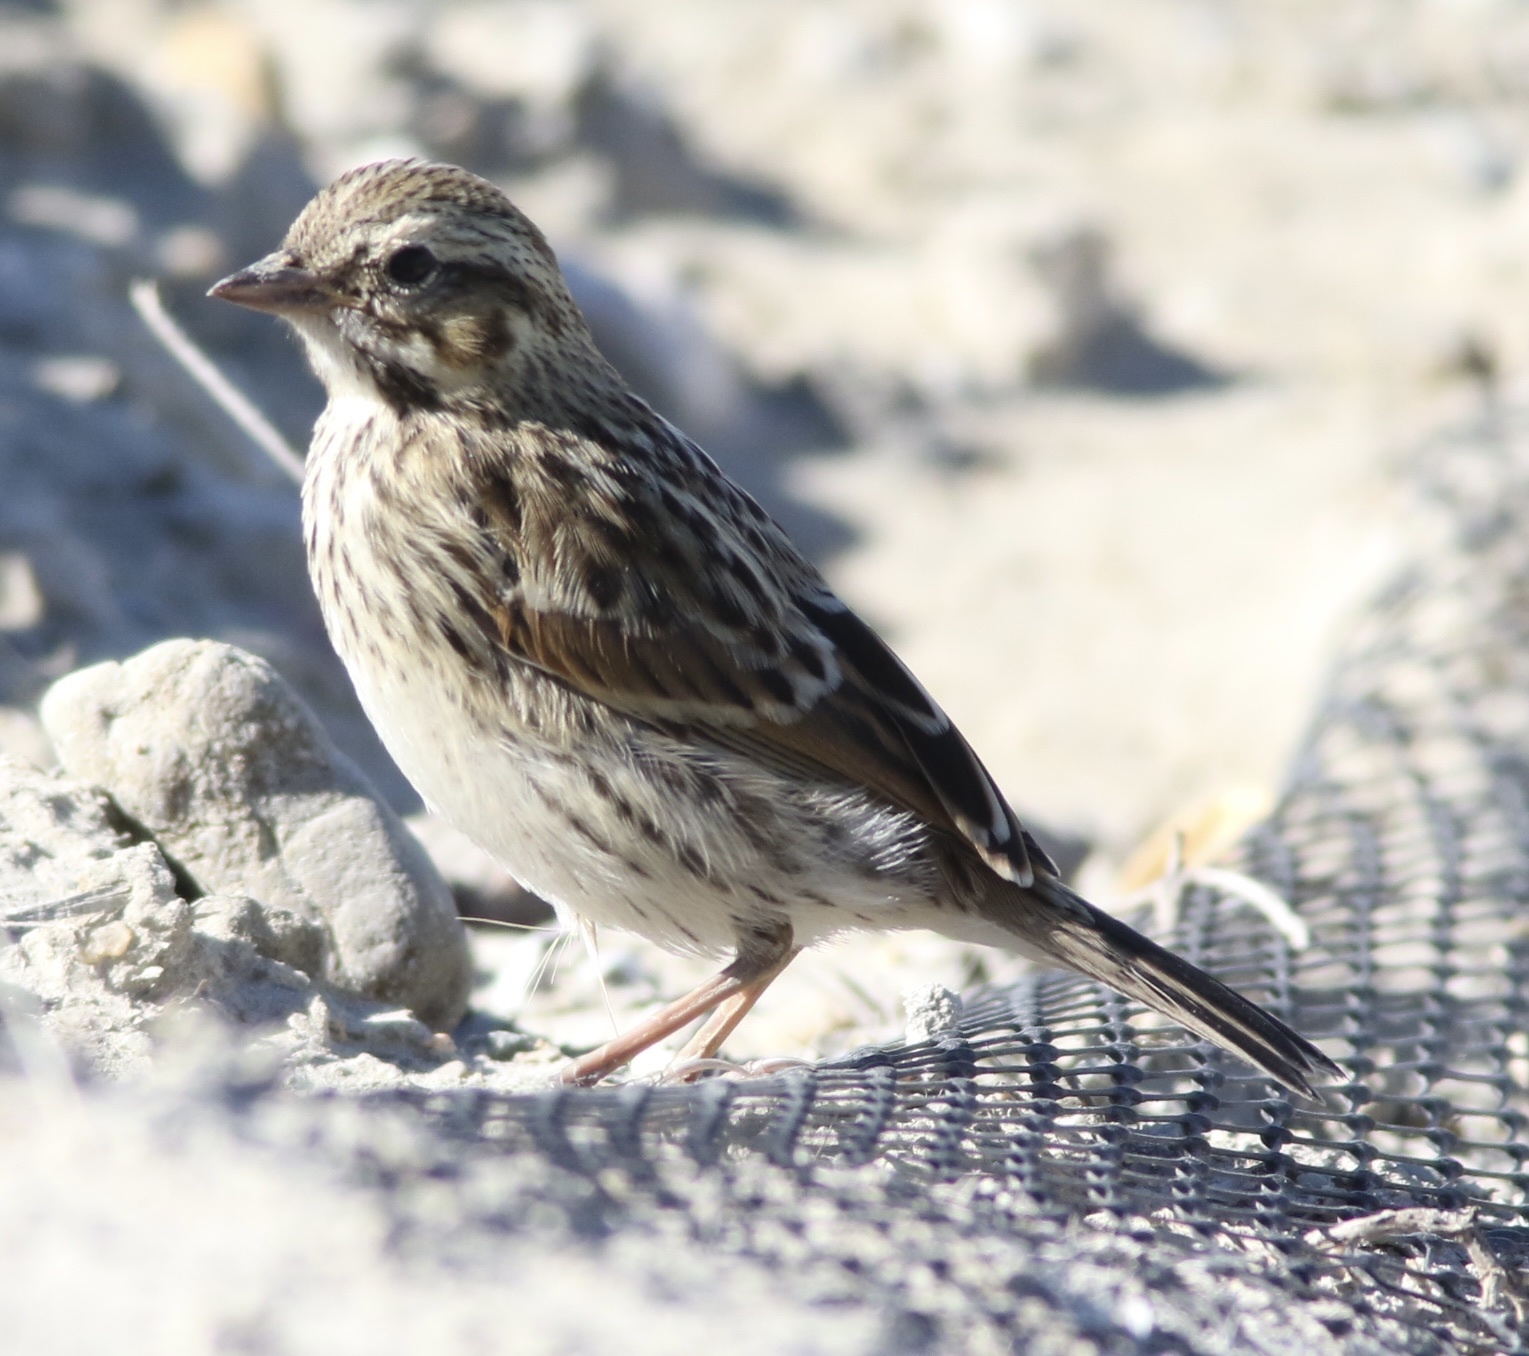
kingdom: Animalia
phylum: Chordata
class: Aves
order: Passeriformes
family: Passerellidae
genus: Passerculus
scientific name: Passerculus sandwichensis
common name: Savannah sparrow
